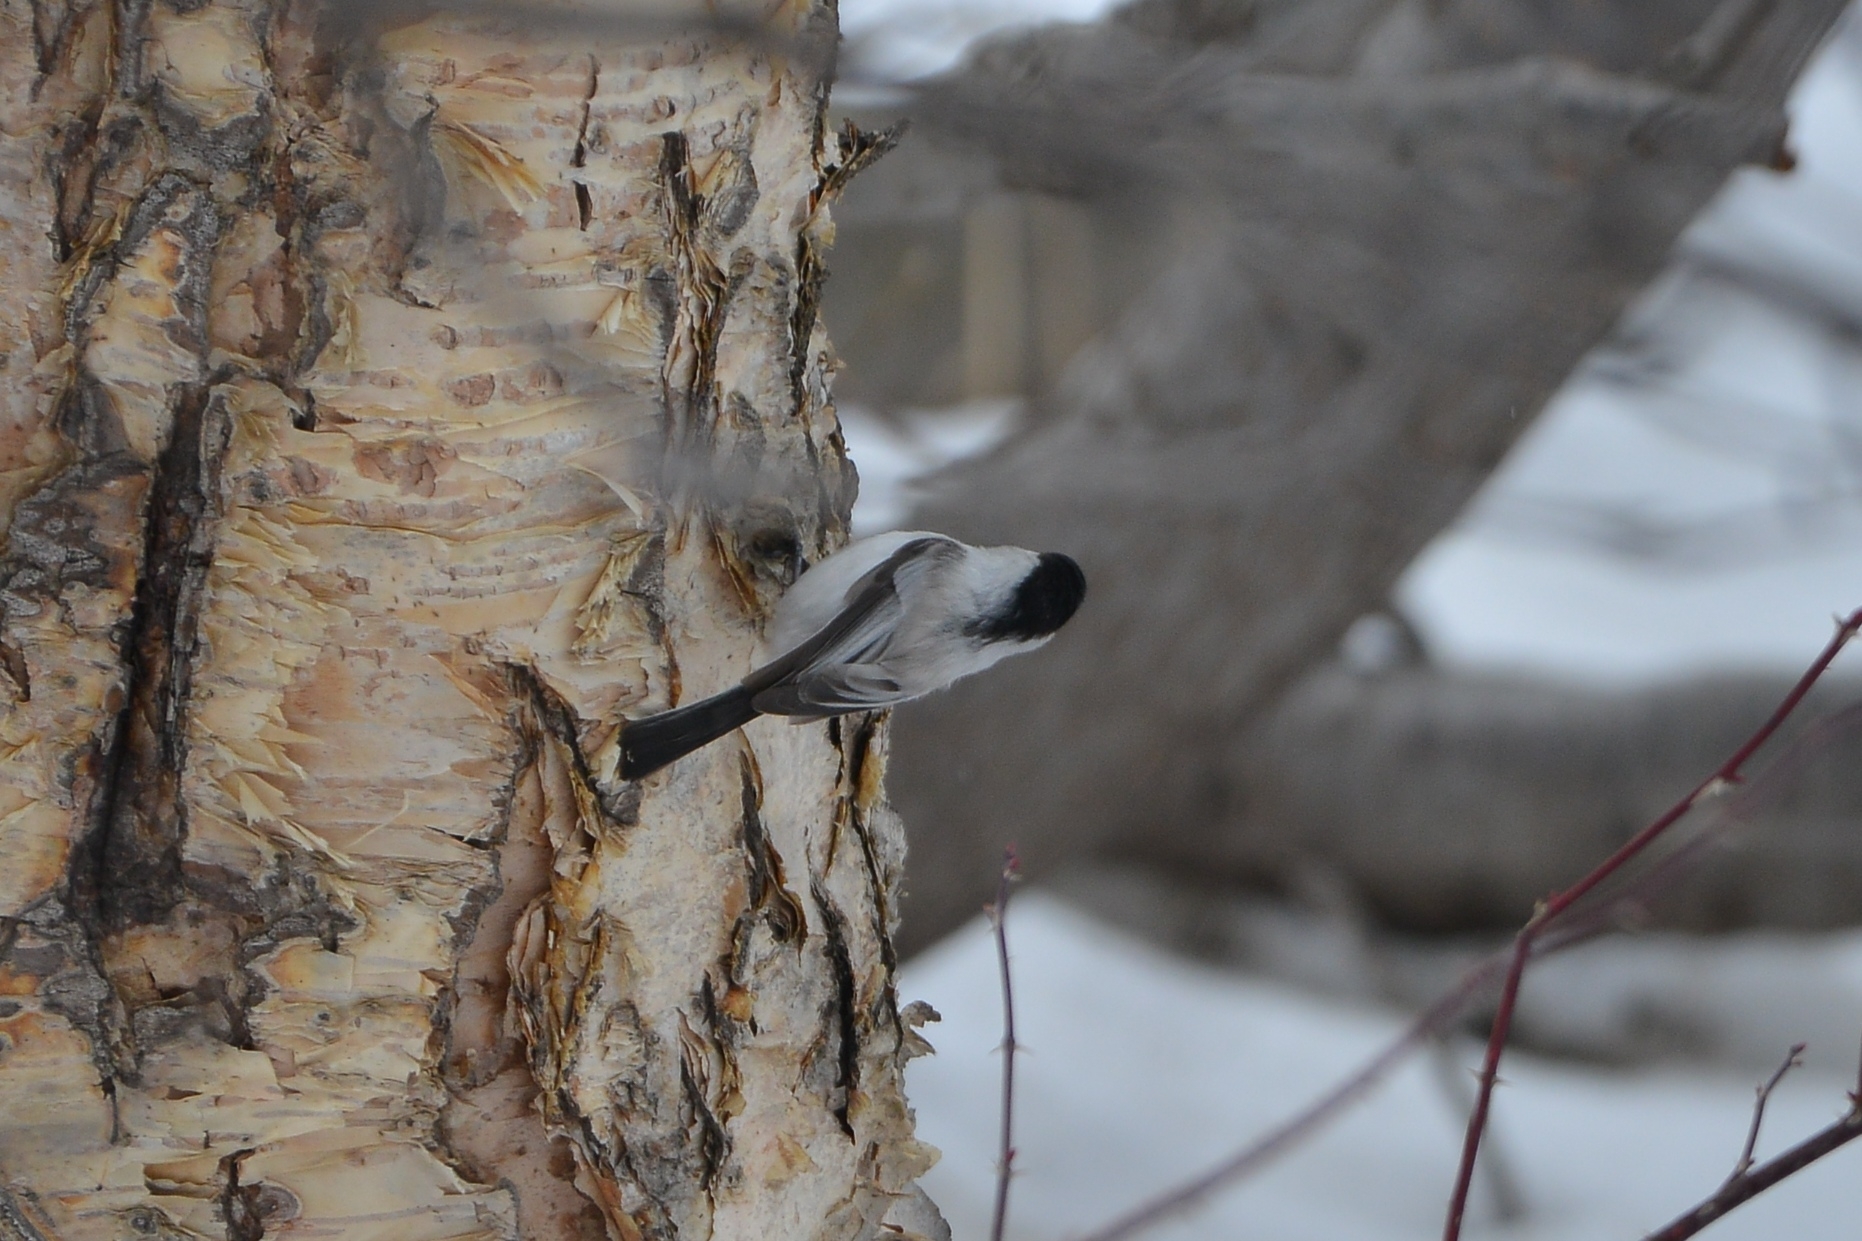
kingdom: Animalia
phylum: Chordata
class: Aves
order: Passeriformes
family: Paridae
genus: Poecile
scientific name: Poecile montanus
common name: Willow tit
